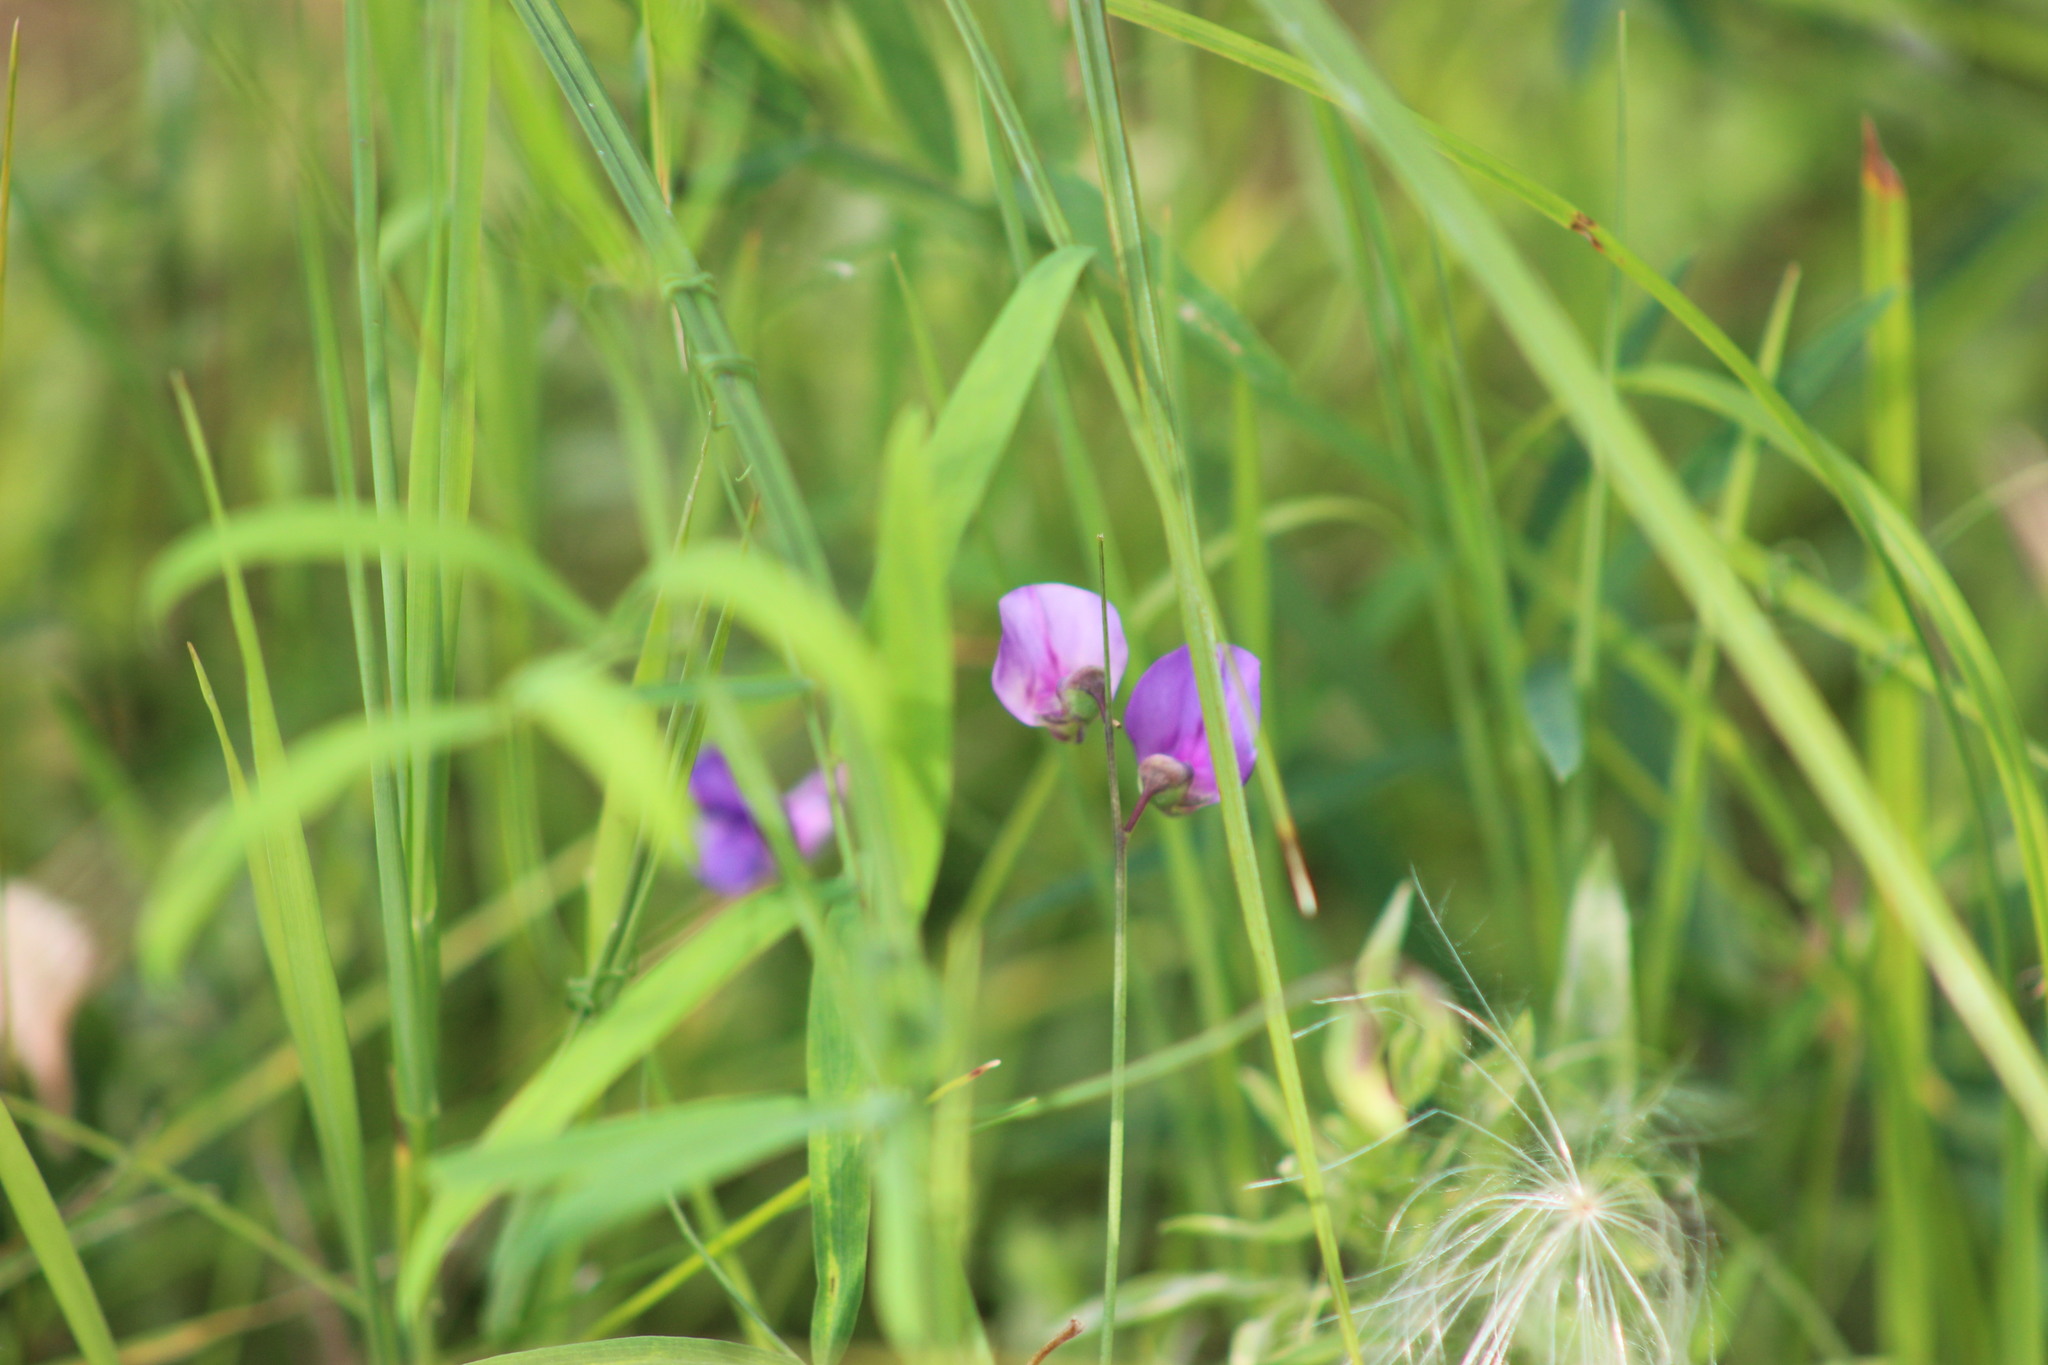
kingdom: Plantae
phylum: Tracheophyta
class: Magnoliopsida
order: Fabales
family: Fabaceae
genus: Lathyrus
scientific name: Lathyrus palustris
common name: Marsh pea
